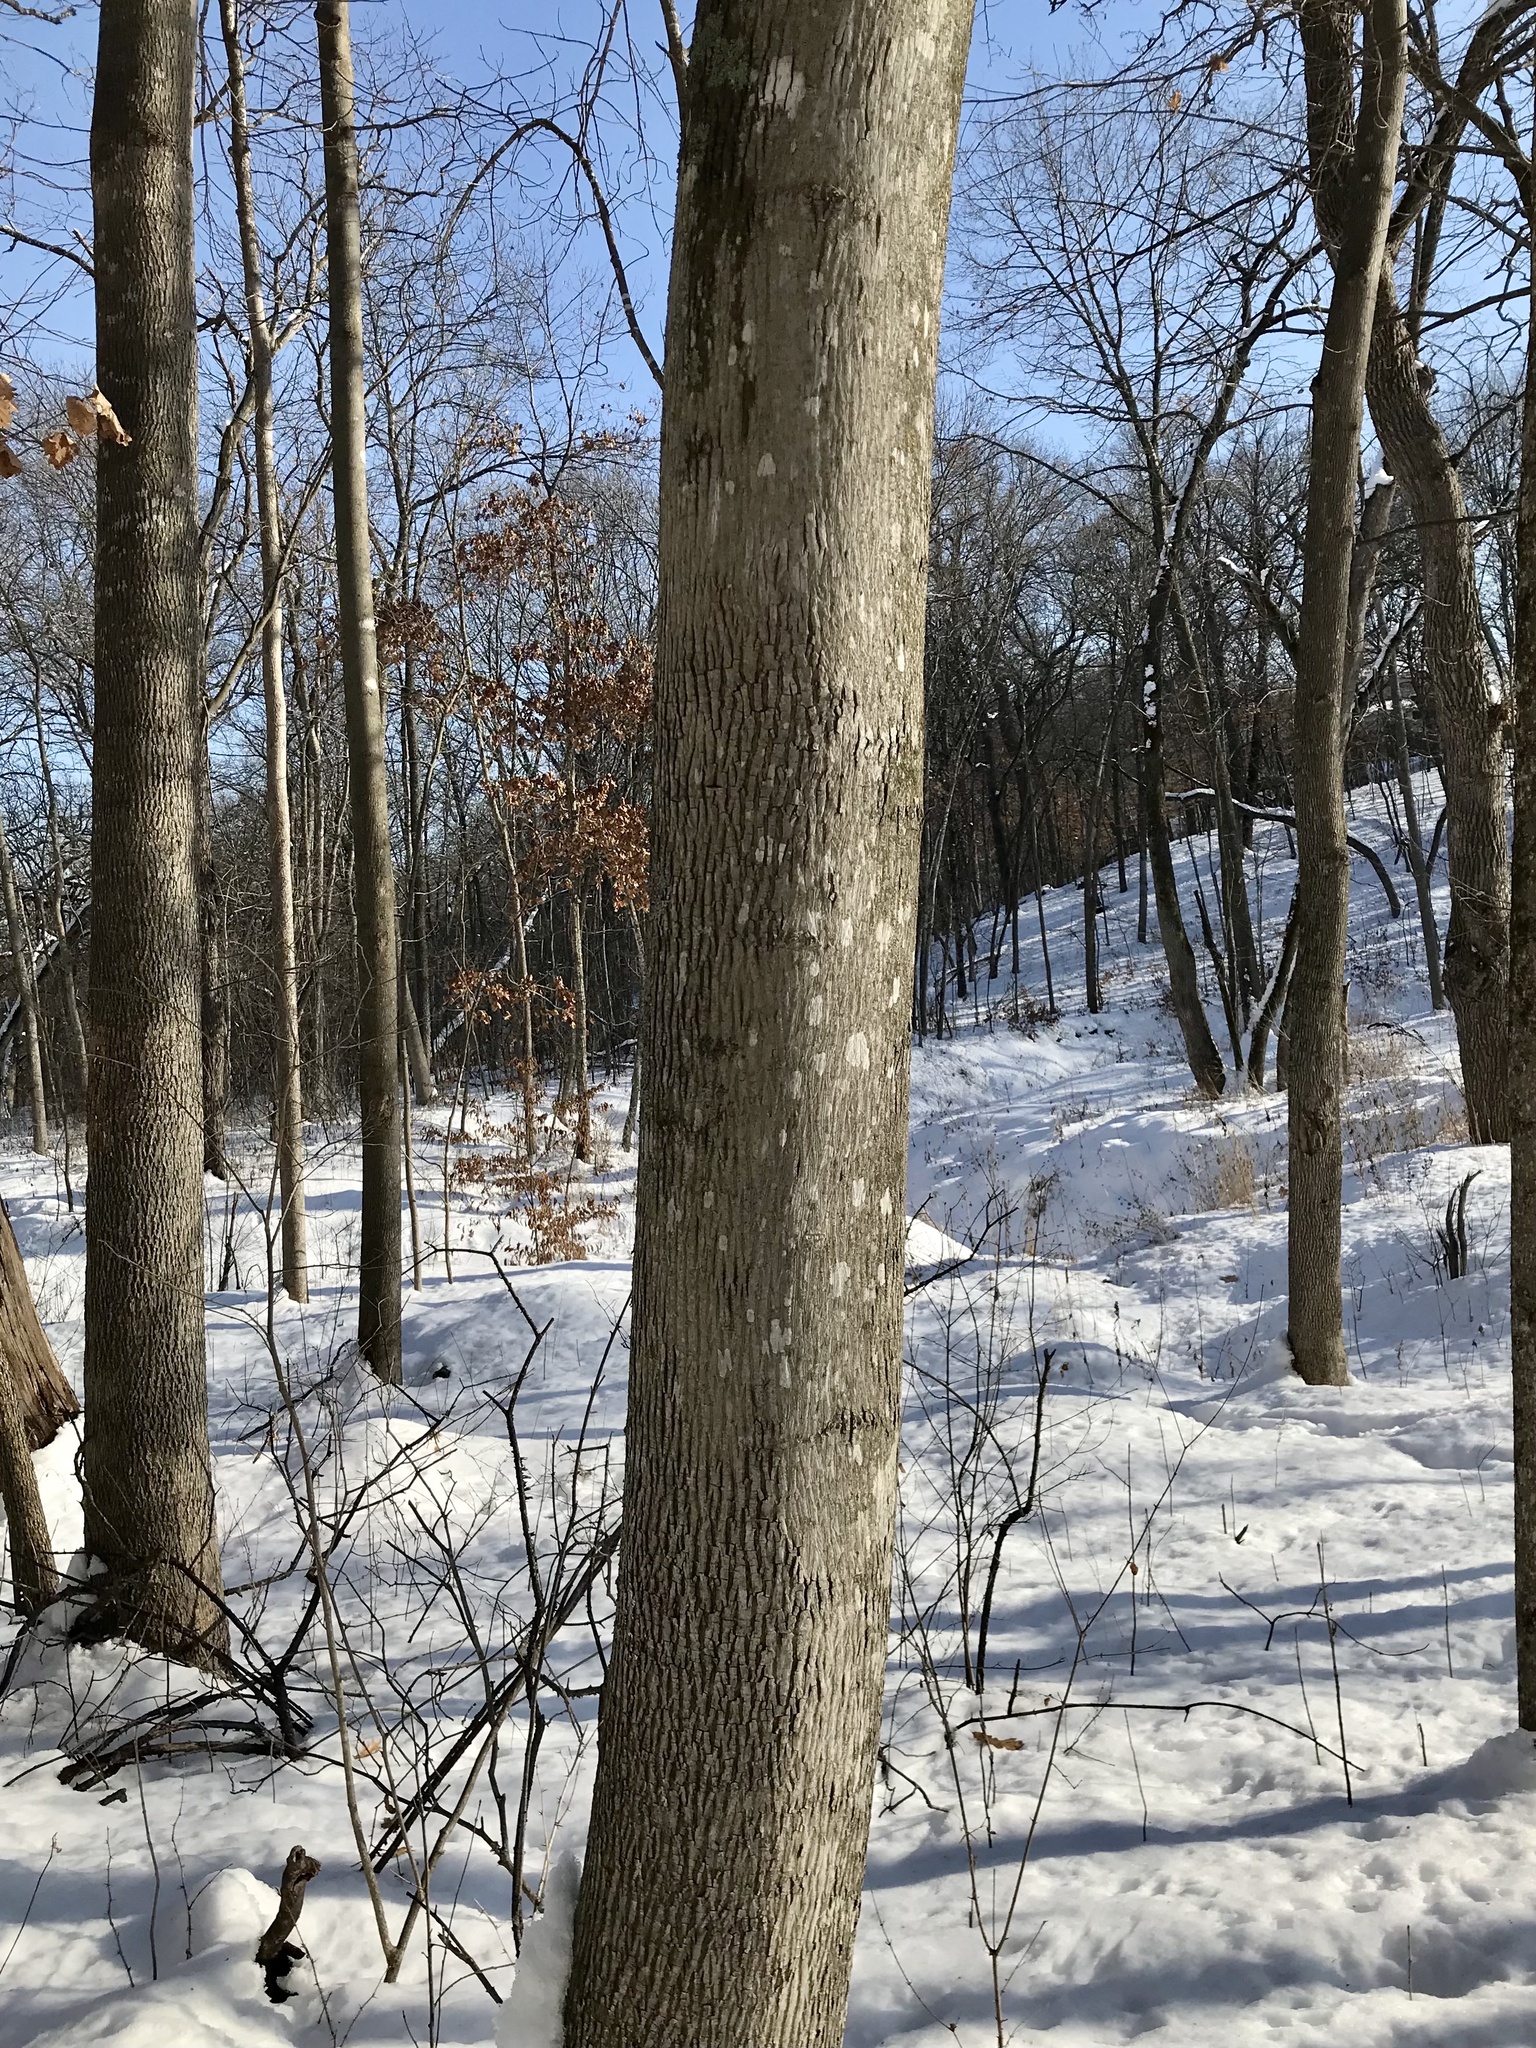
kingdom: Plantae
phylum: Tracheophyta
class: Magnoliopsida
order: Fagales
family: Juglandaceae
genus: Carya
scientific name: Carya cordiformis
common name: Bitternut hickory
